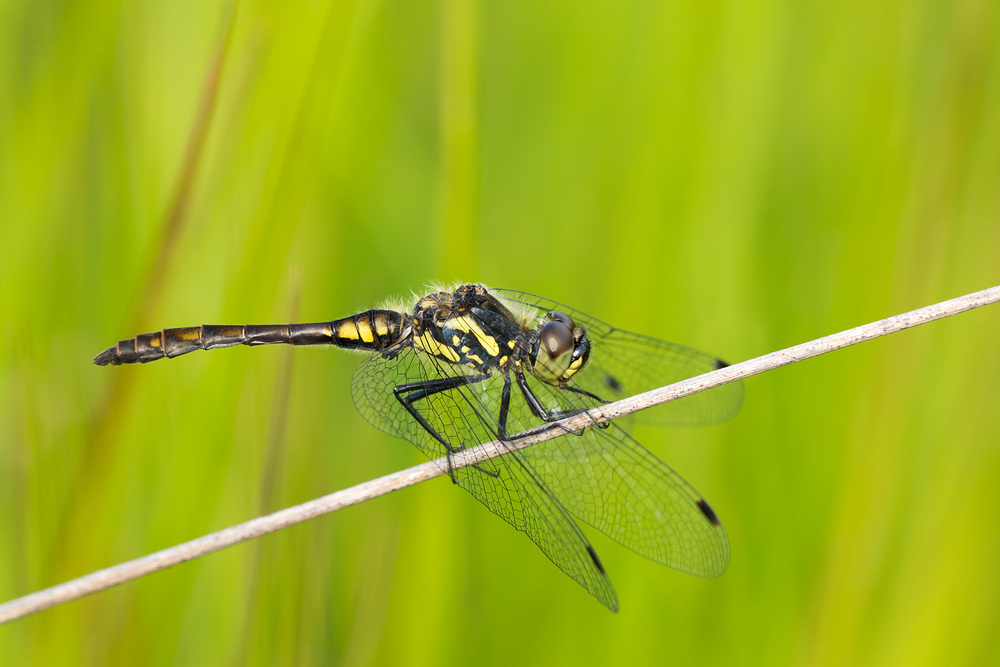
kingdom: Animalia
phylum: Arthropoda
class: Insecta
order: Odonata
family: Libellulidae
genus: Sympetrum
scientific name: Sympetrum danae
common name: Black darter
